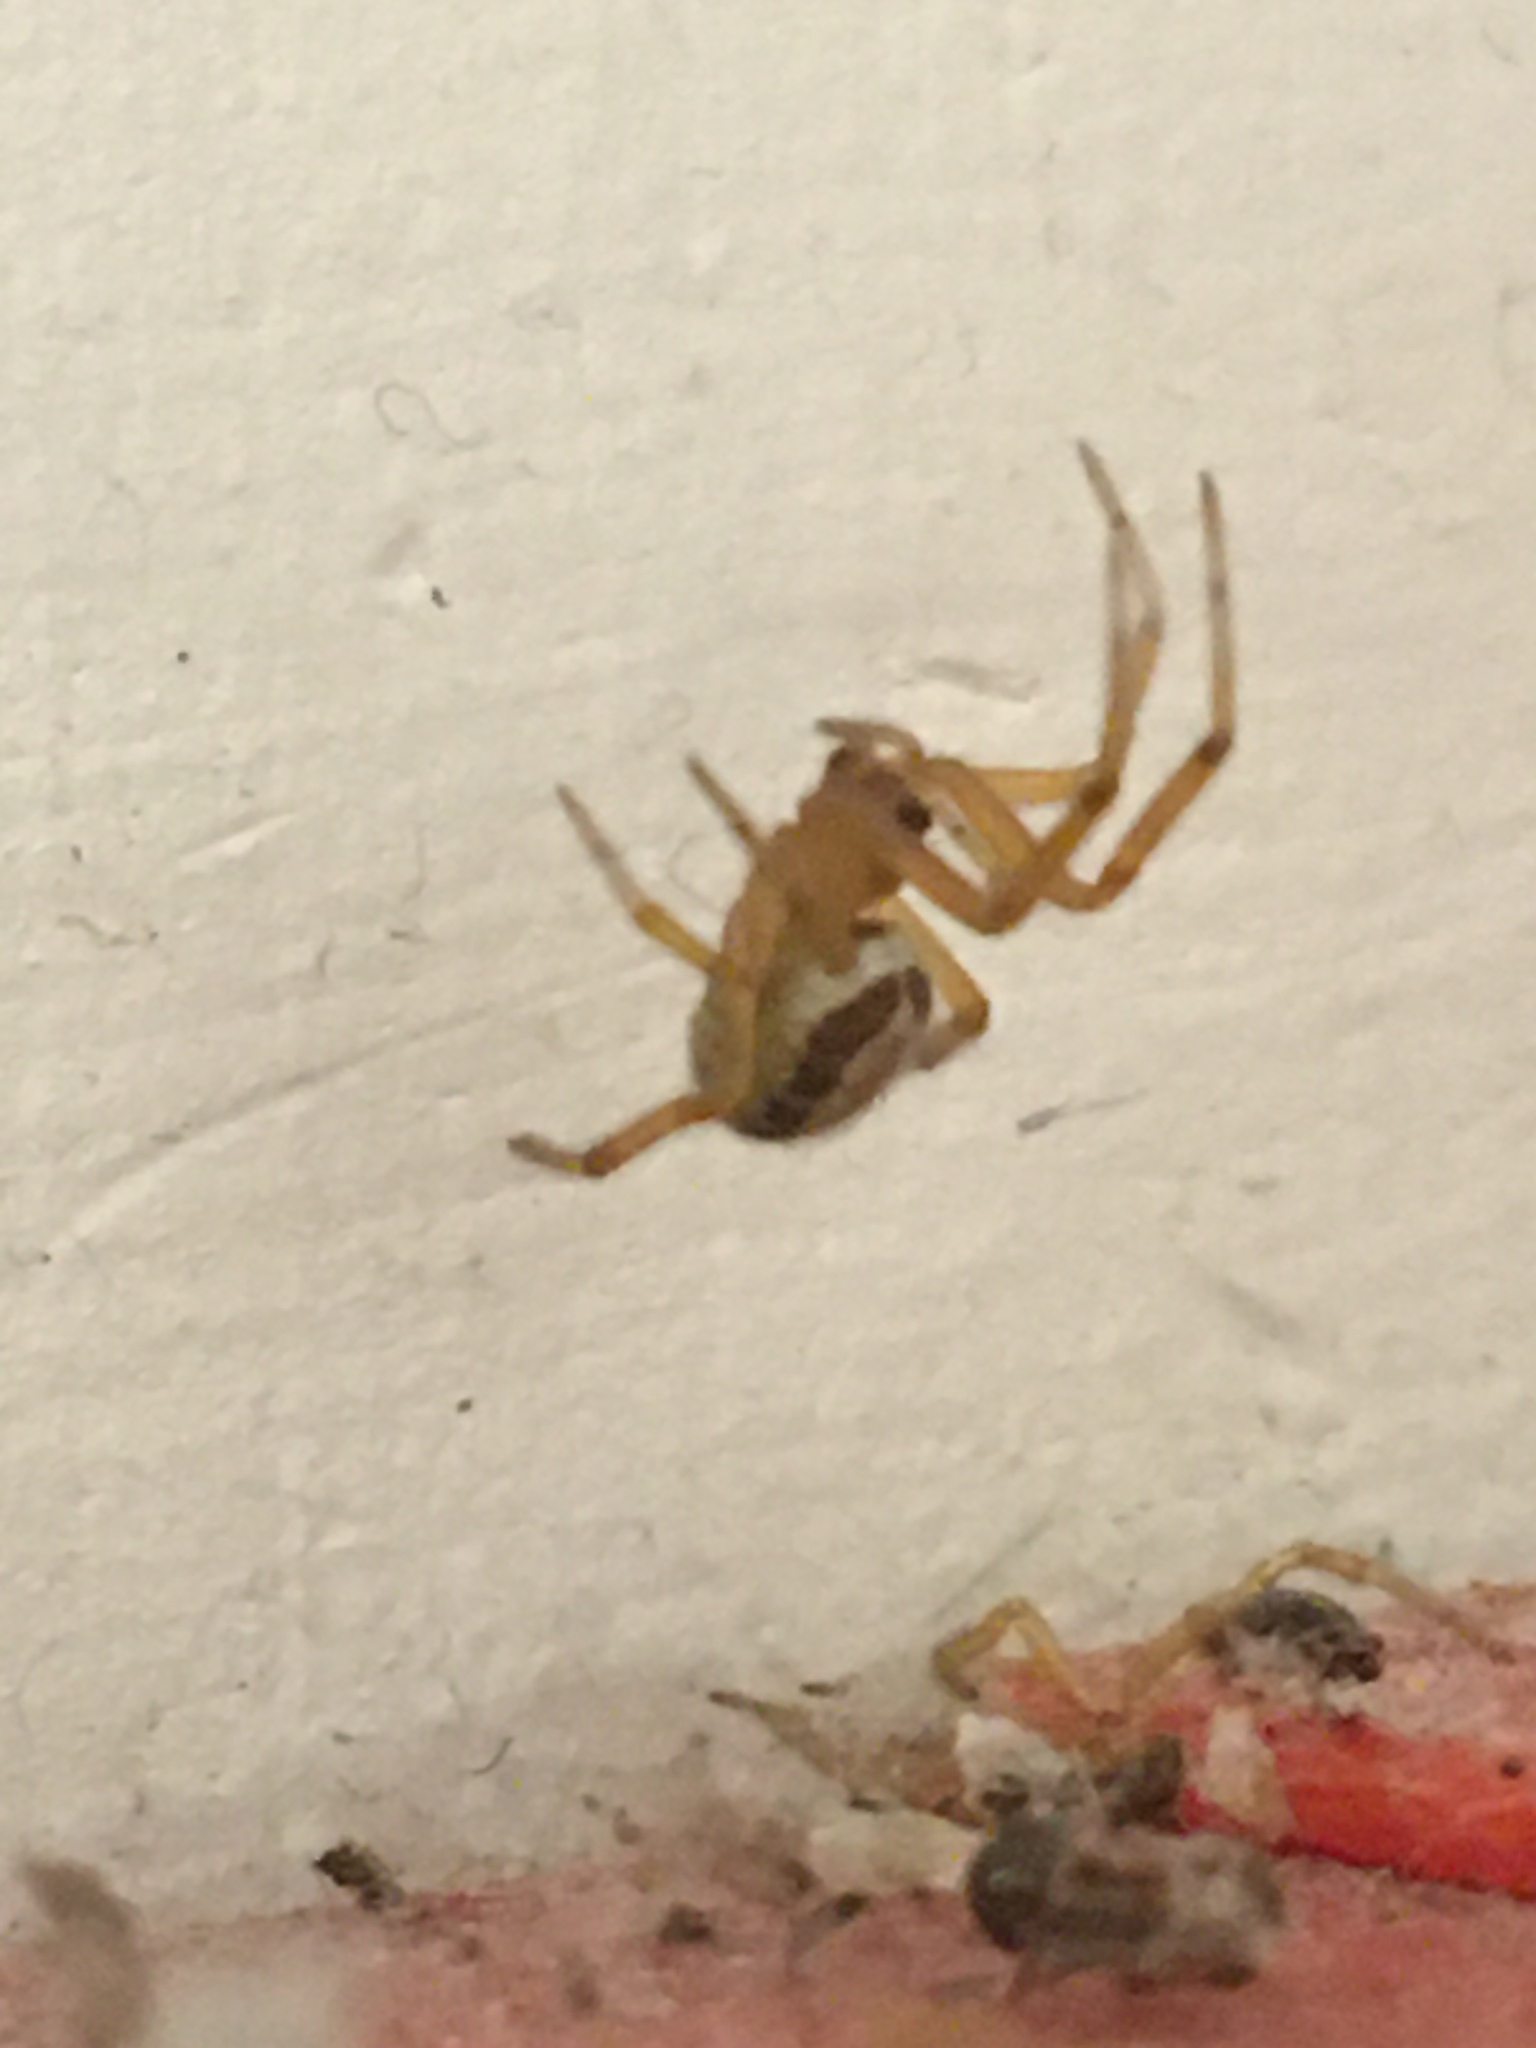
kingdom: Animalia
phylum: Arthropoda
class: Arachnida
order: Araneae
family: Theridiidae
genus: Steatoda
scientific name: Steatoda nobilis
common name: Cobweb weaver
